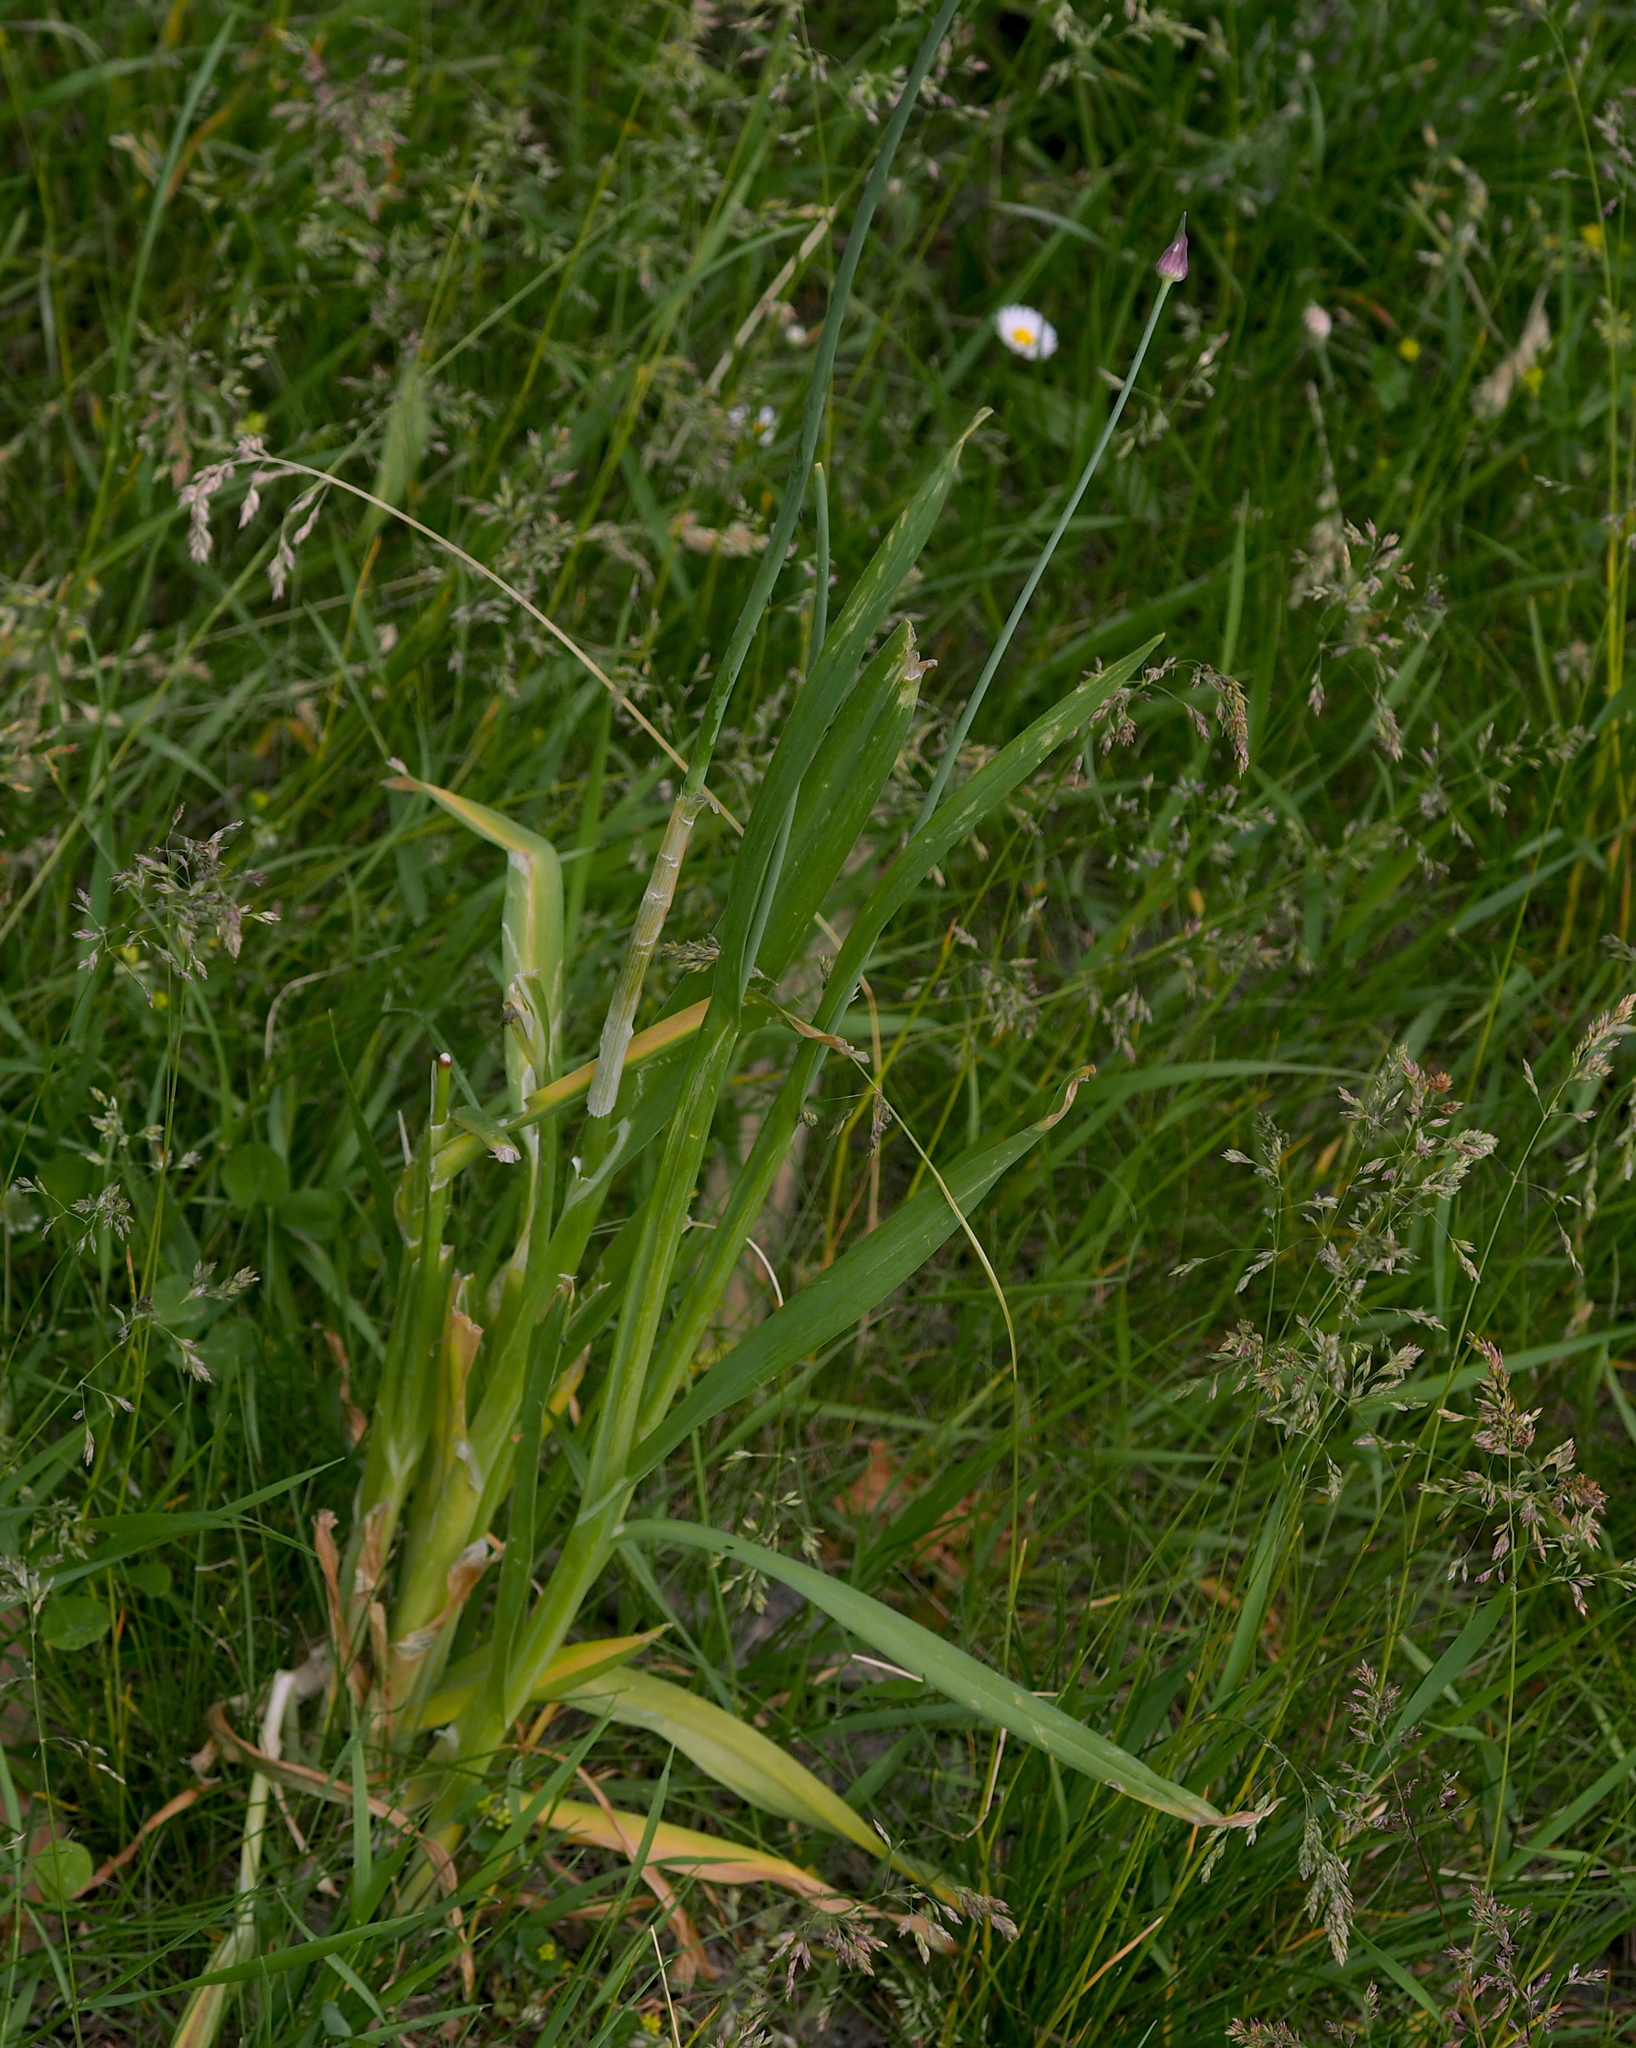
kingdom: Plantae
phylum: Tracheophyta
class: Liliopsida
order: Asparagales
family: Amaryllidaceae
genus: Allium
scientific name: Allium scorodoprasum
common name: Sand leek
